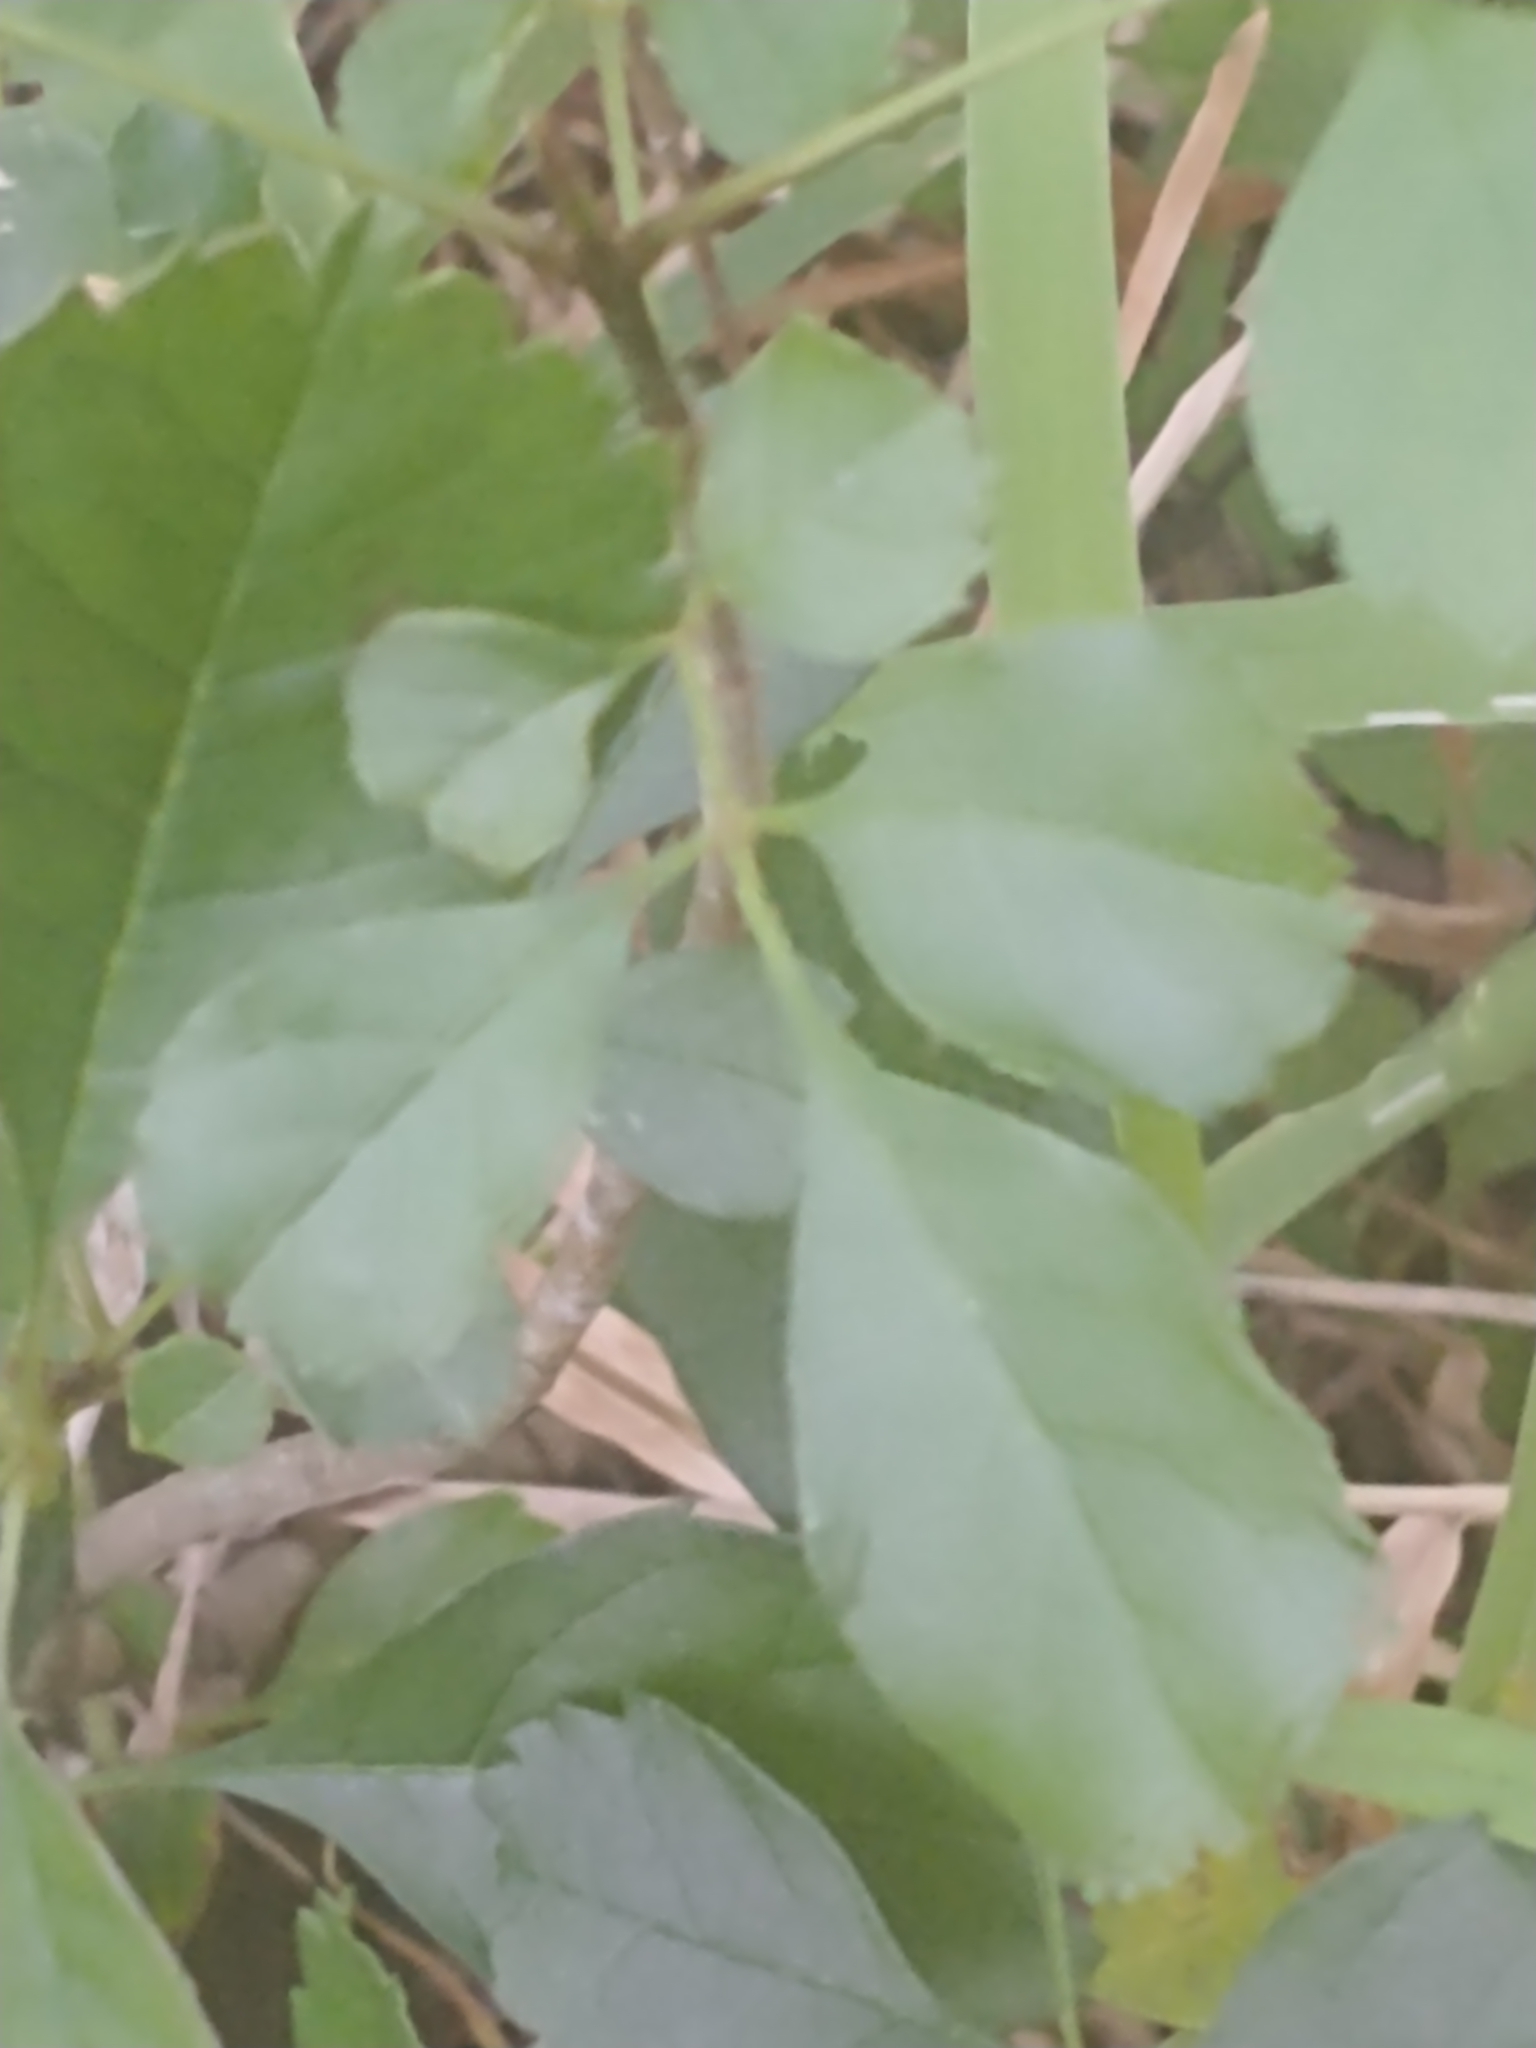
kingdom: Plantae
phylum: Tracheophyta
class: Magnoliopsida
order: Lamiales
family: Oleaceae
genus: Fraxinus
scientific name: Fraxinus caroliniana
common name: Carolina ash
